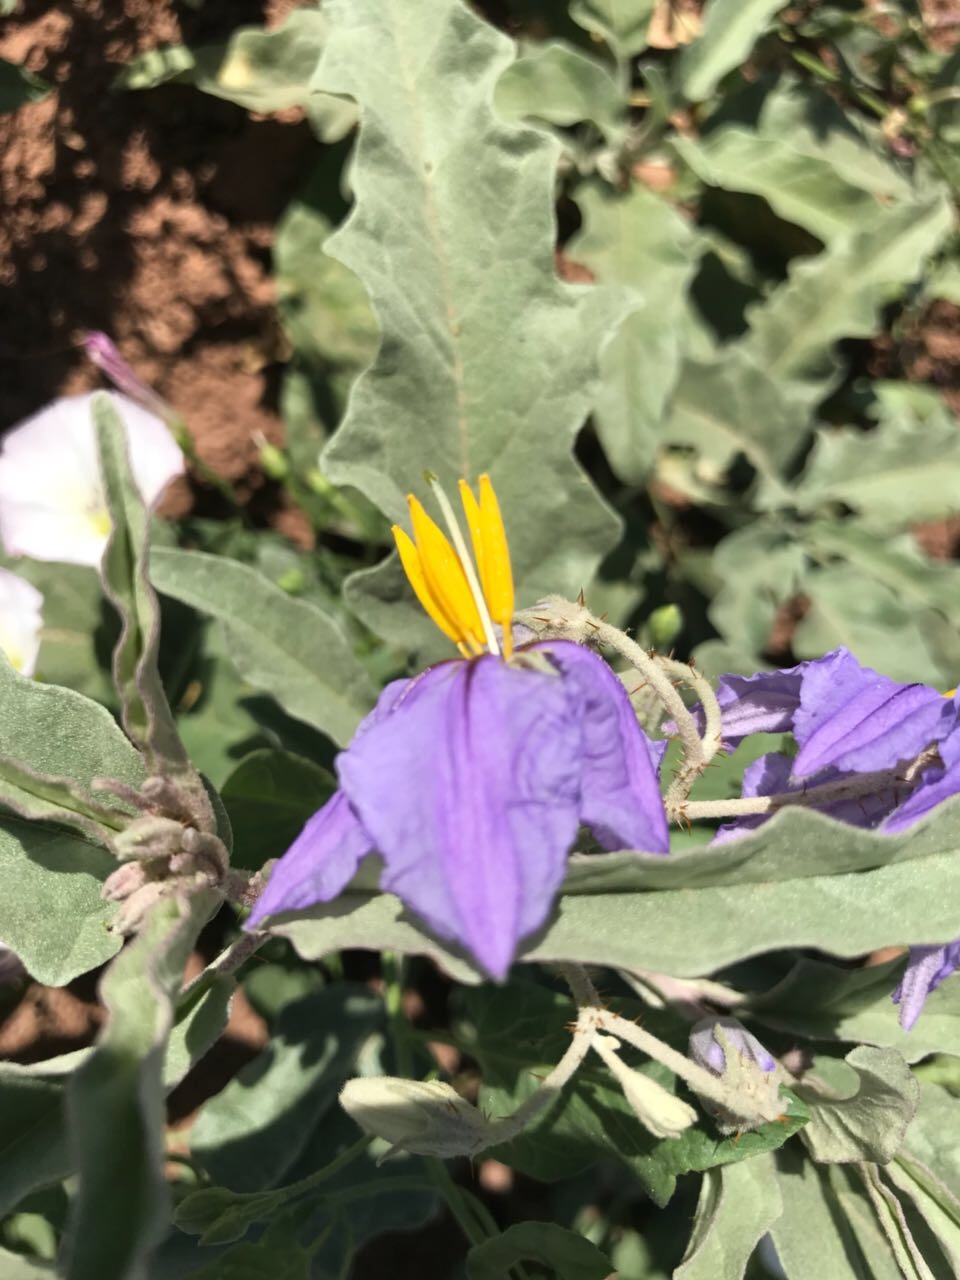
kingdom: Plantae
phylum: Tracheophyta
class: Magnoliopsida
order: Solanales
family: Solanaceae
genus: Solanum
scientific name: Solanum elaeagnifolium
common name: Silverleaf nightshade
